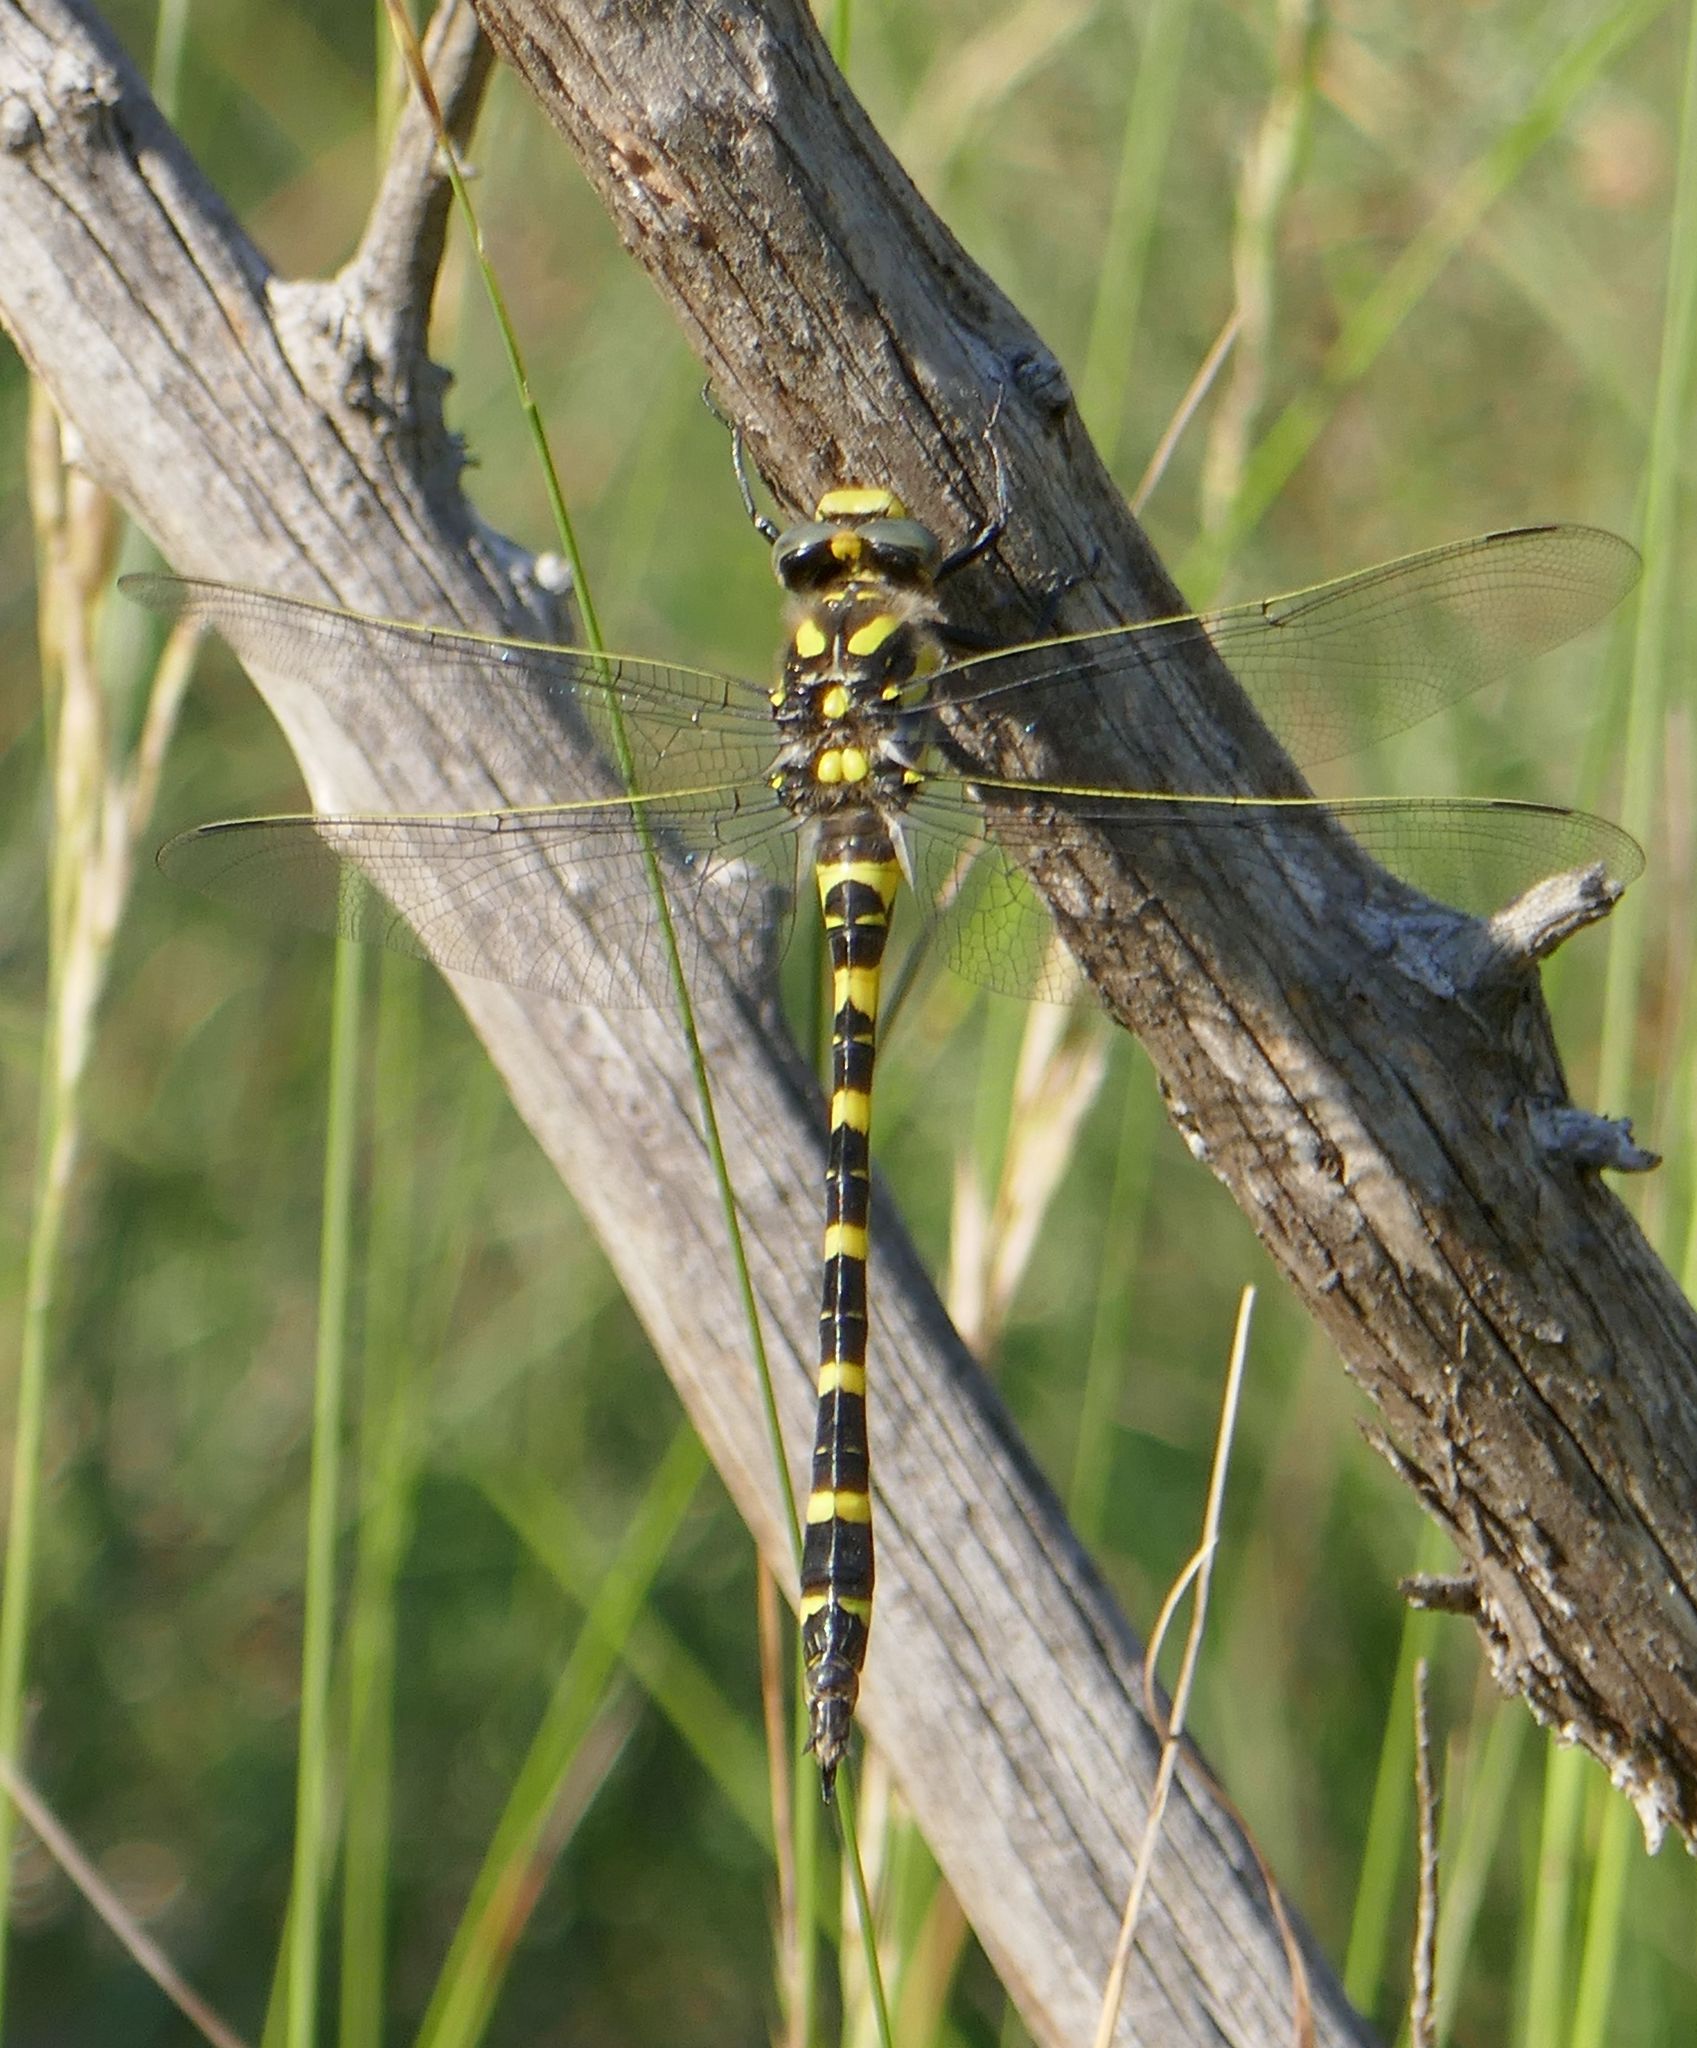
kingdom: Animalia
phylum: Arthropoda
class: Insecta
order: Odonata
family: Cordulegastridae
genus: Cordulegaster
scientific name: Cordulegaster boltonii
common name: Golden-ringed dragonfly
